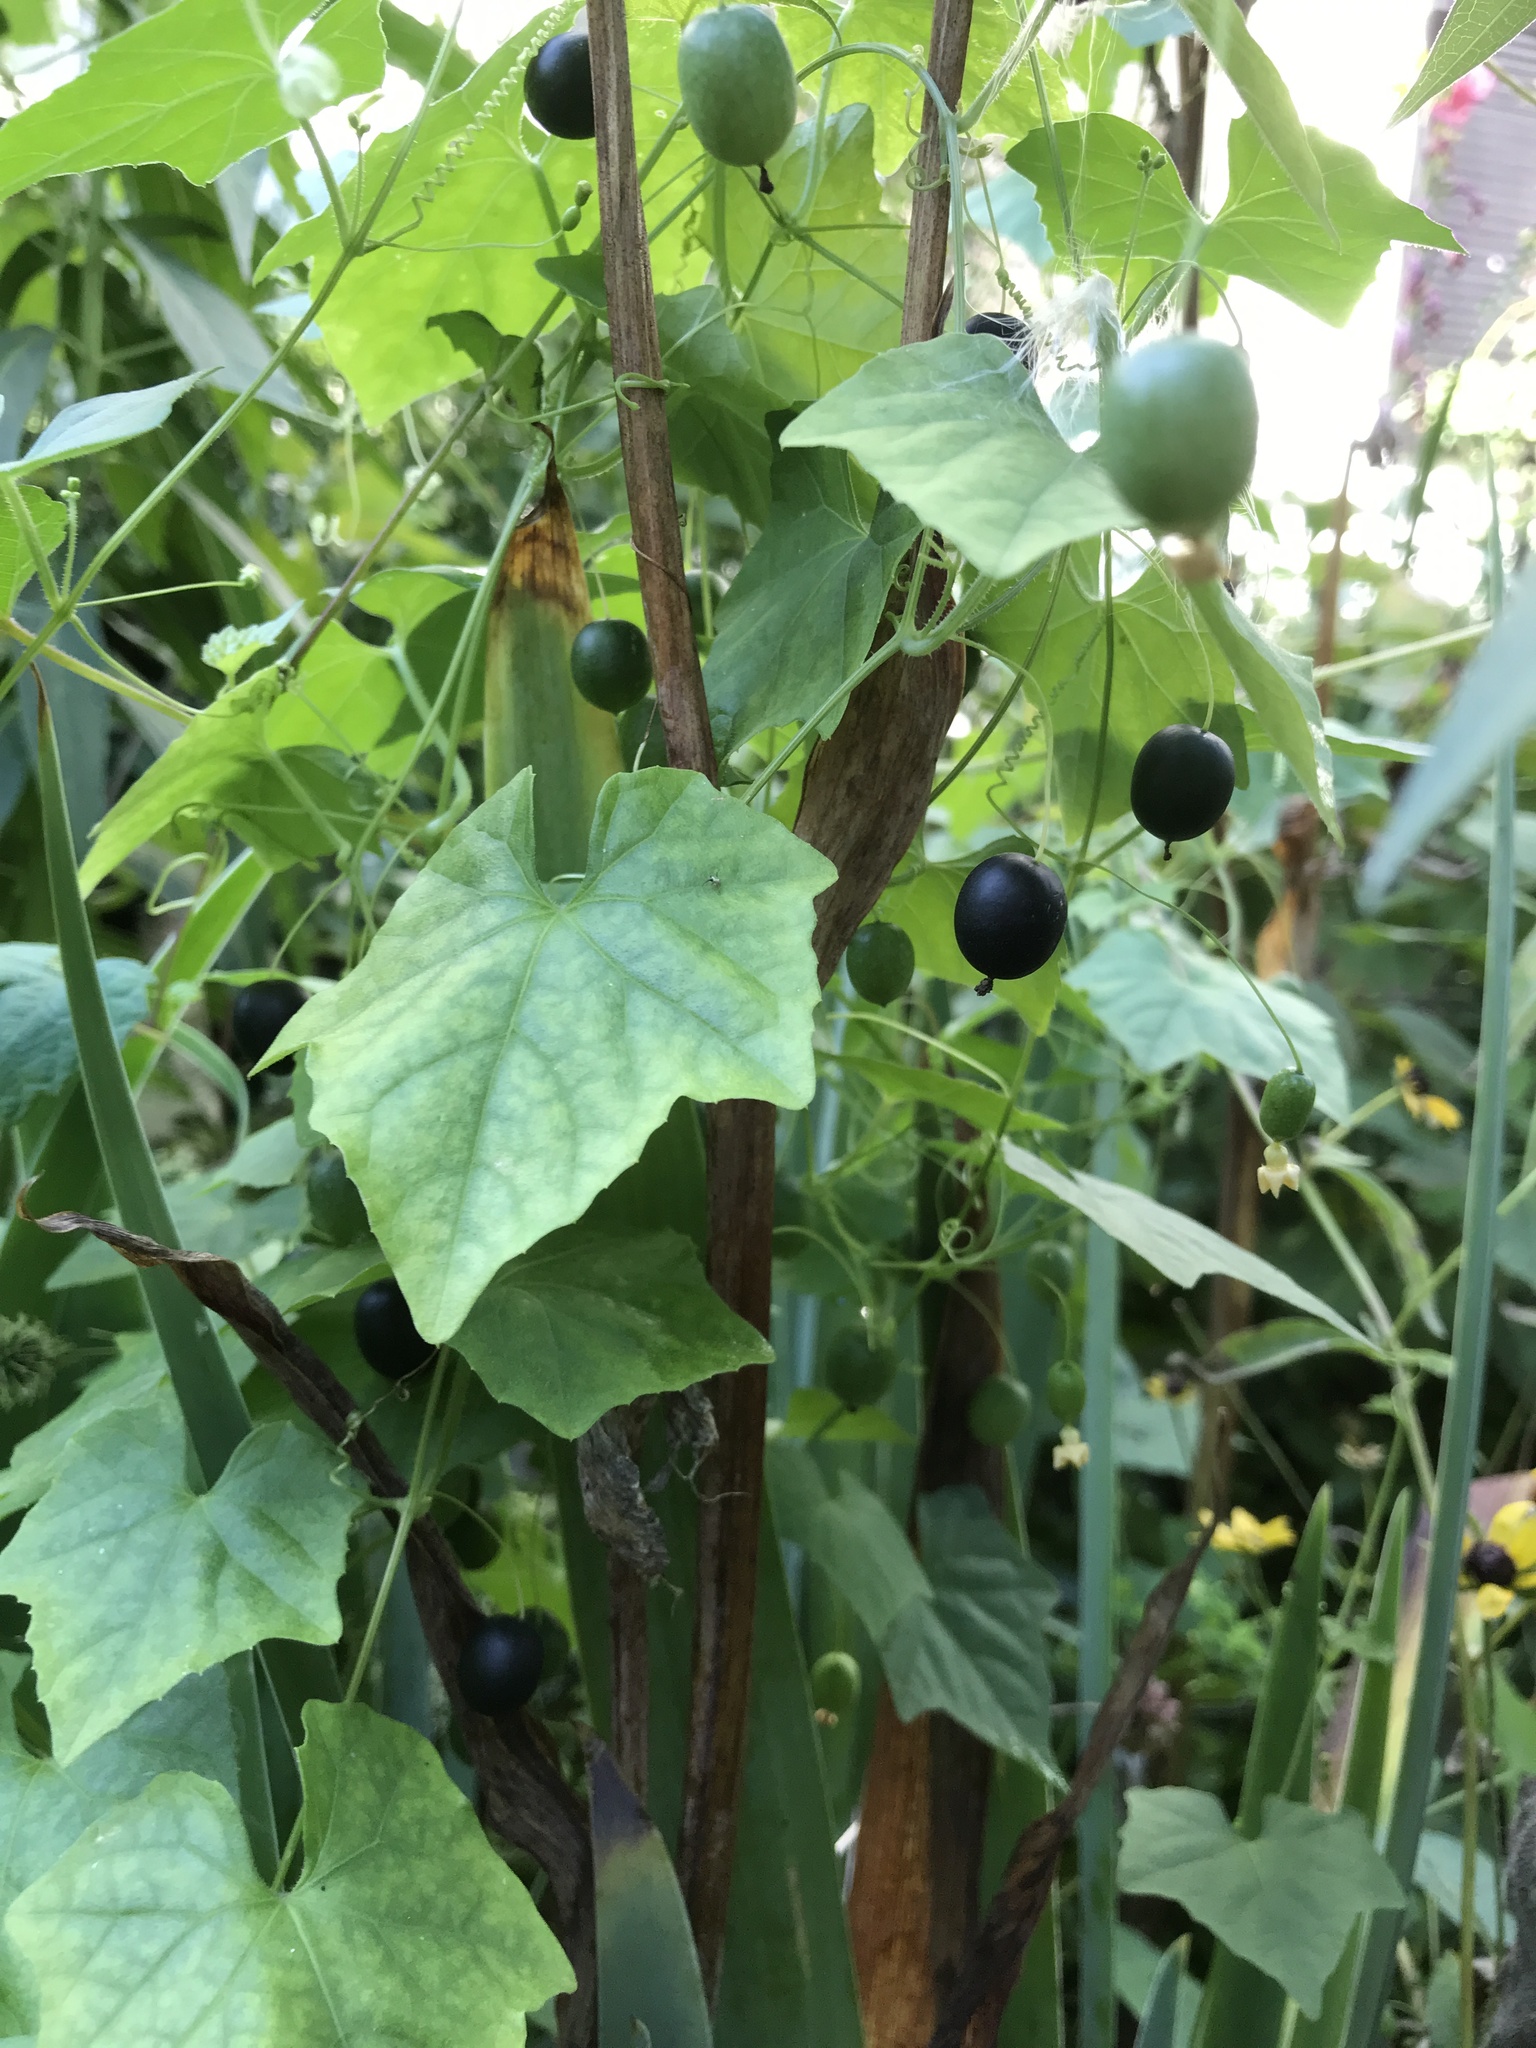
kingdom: Plantae
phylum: Tracheophyta
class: Magnoliopsida
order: Cucurbitales
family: Cucurbitaceae
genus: Melothria
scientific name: Melothria pendula
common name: Creeping-cucumber
